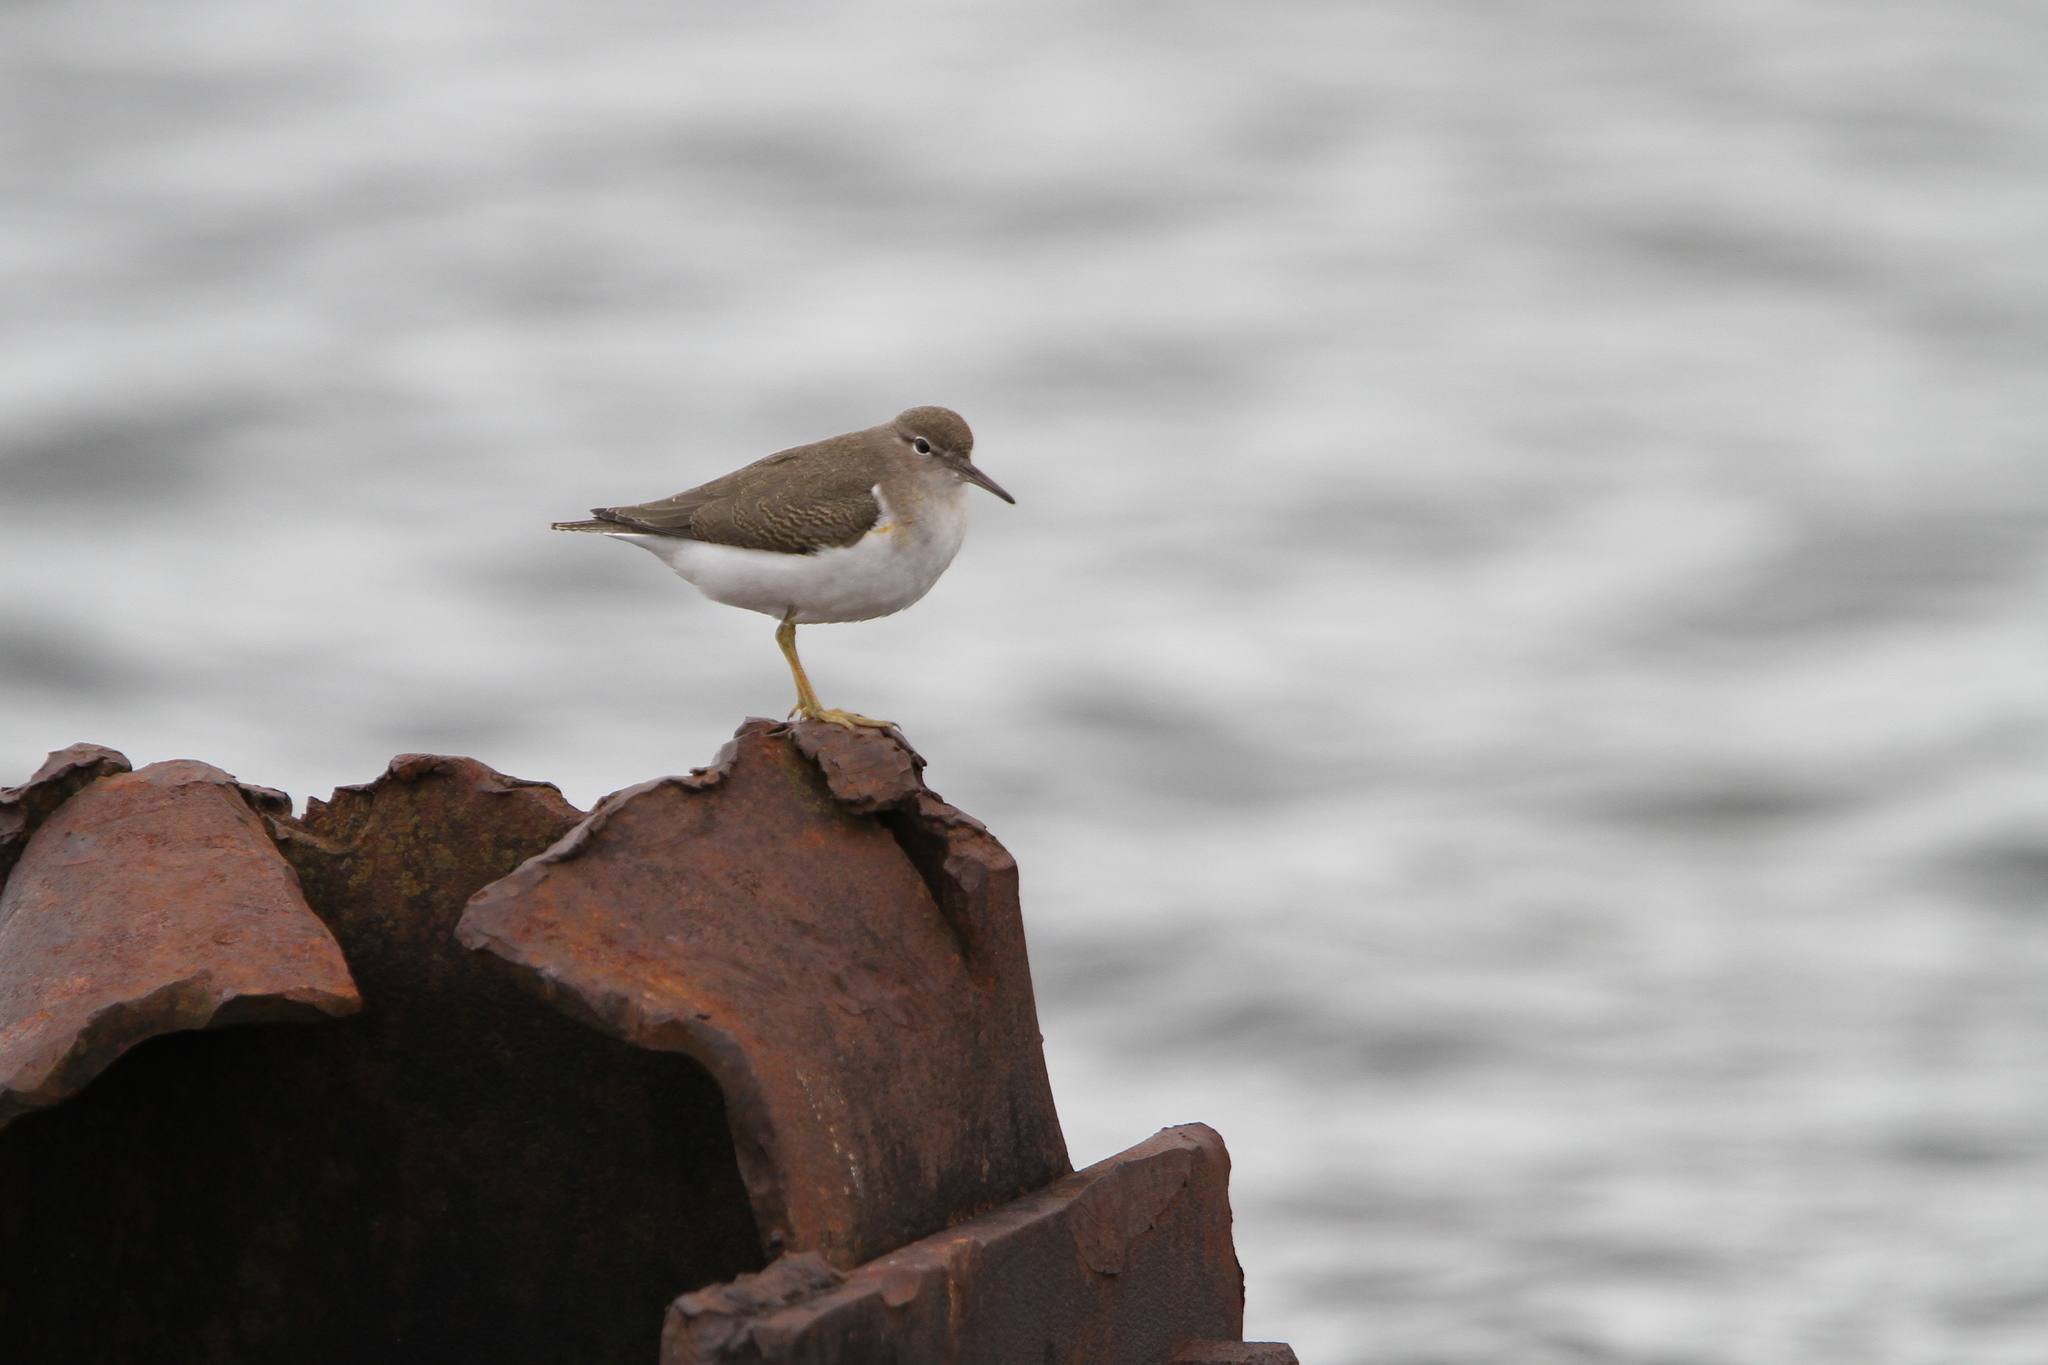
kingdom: Animalia
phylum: Chordata
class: Aves
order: Charadriiformes
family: Scolopacidae
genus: Actitis
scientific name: Actitis macularius
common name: Spotted sandpiper
